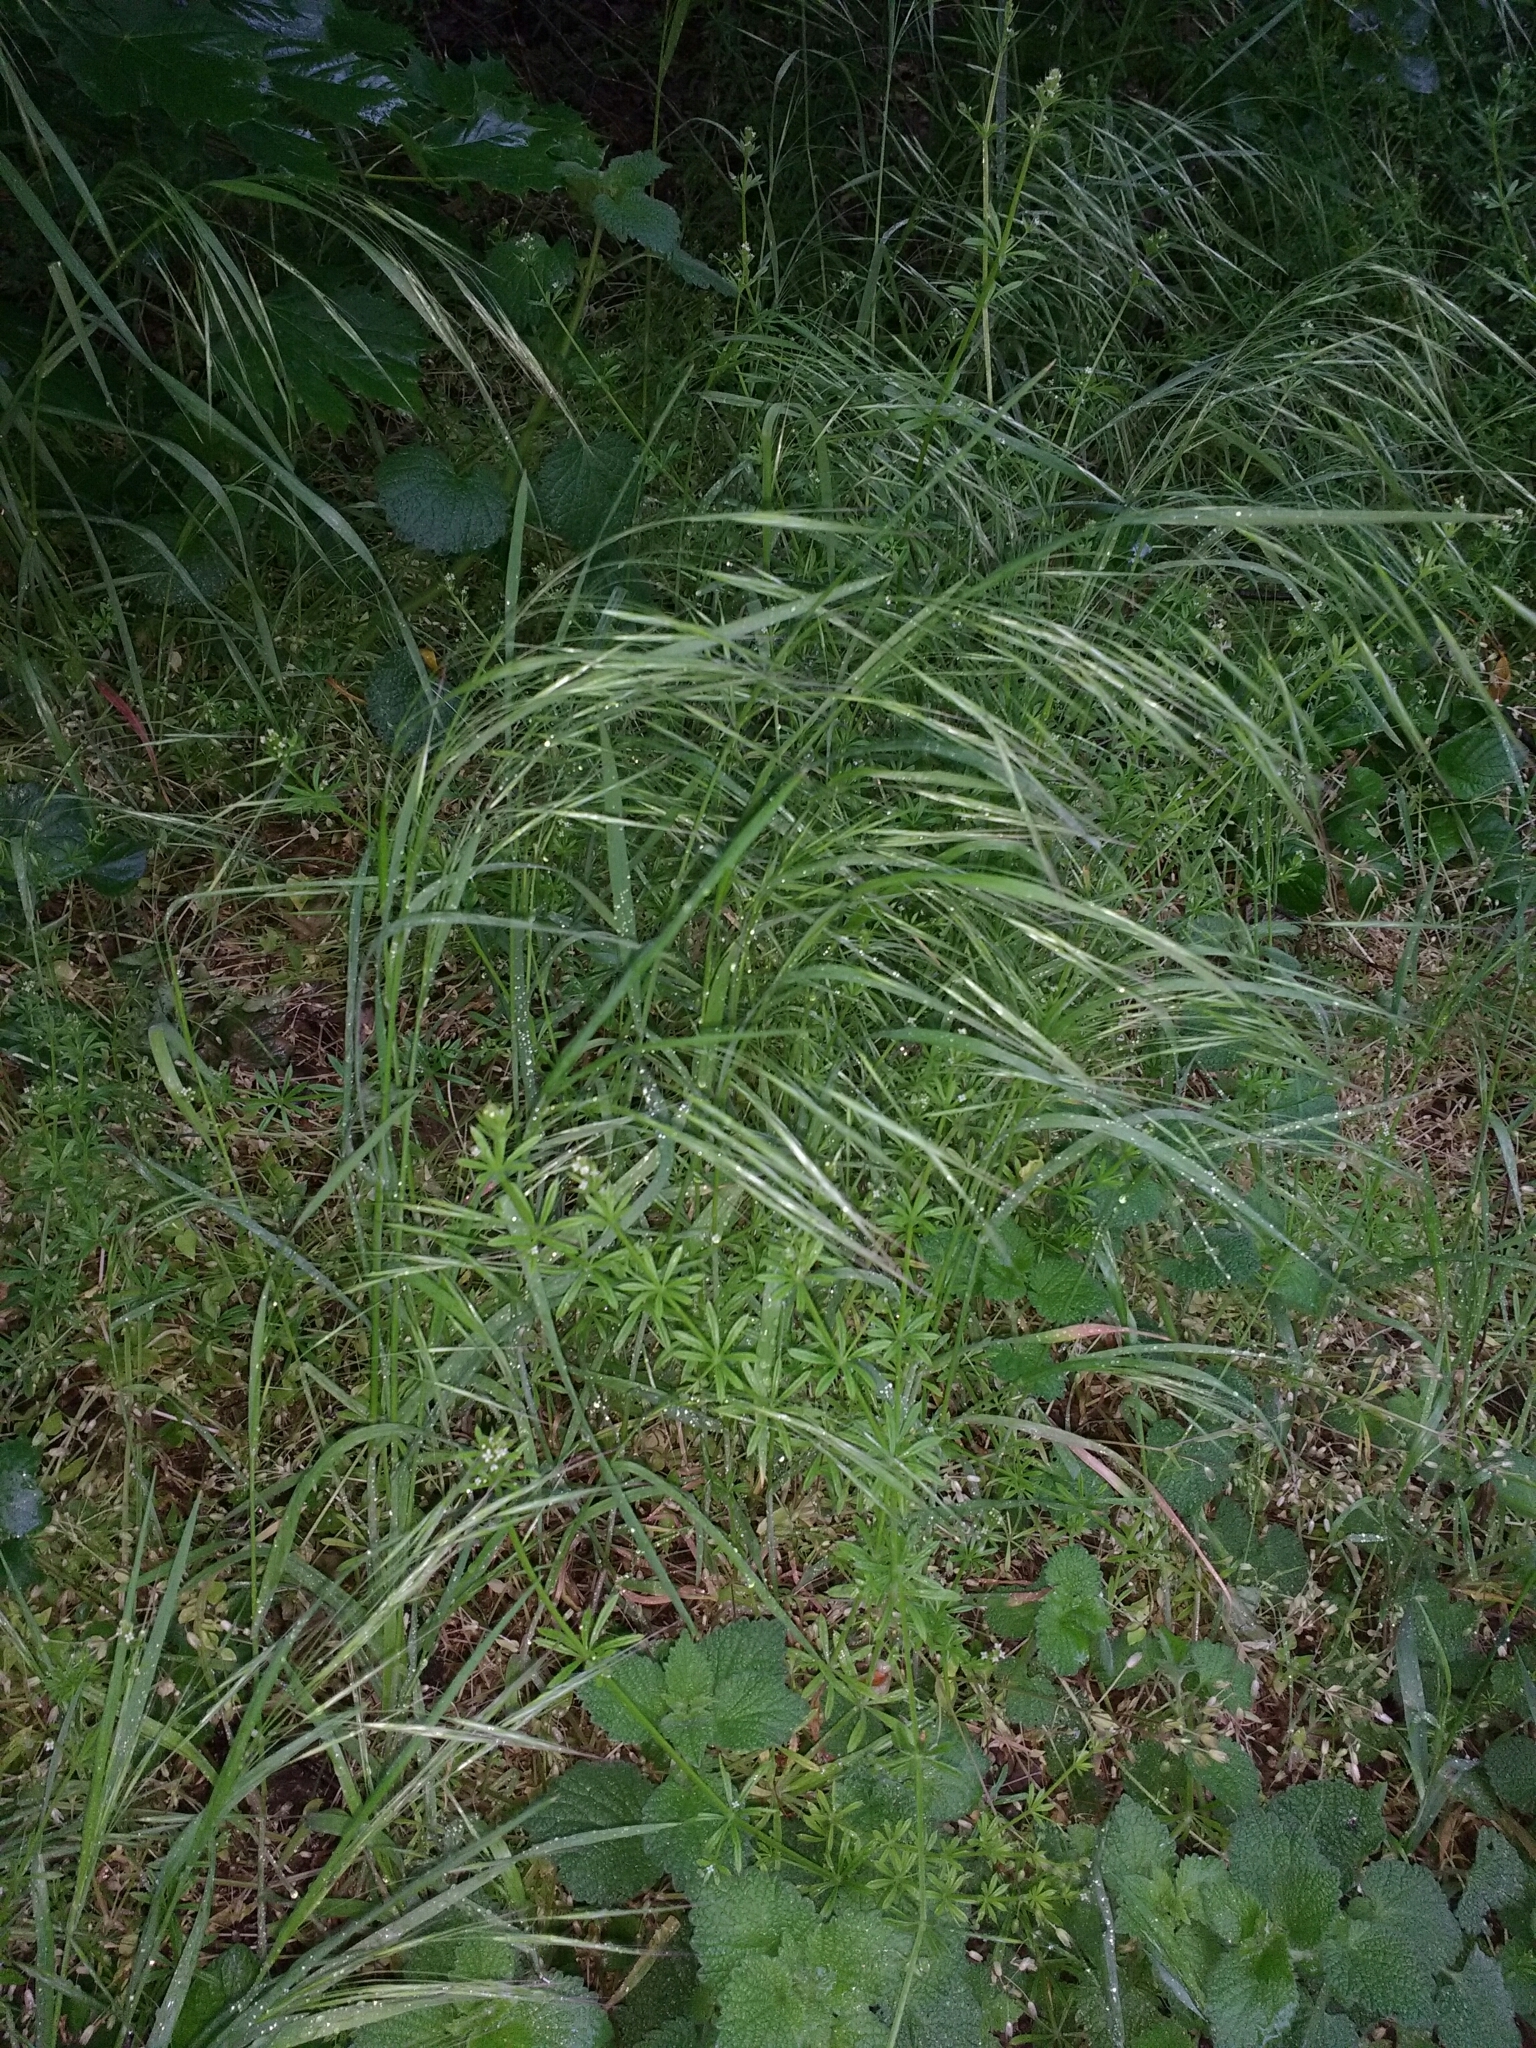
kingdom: Plantae
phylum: Tracheophyta
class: Liliopsida
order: Poales
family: Poaceae
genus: Bromus
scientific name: Bromus sterilis
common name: Poverty brome
